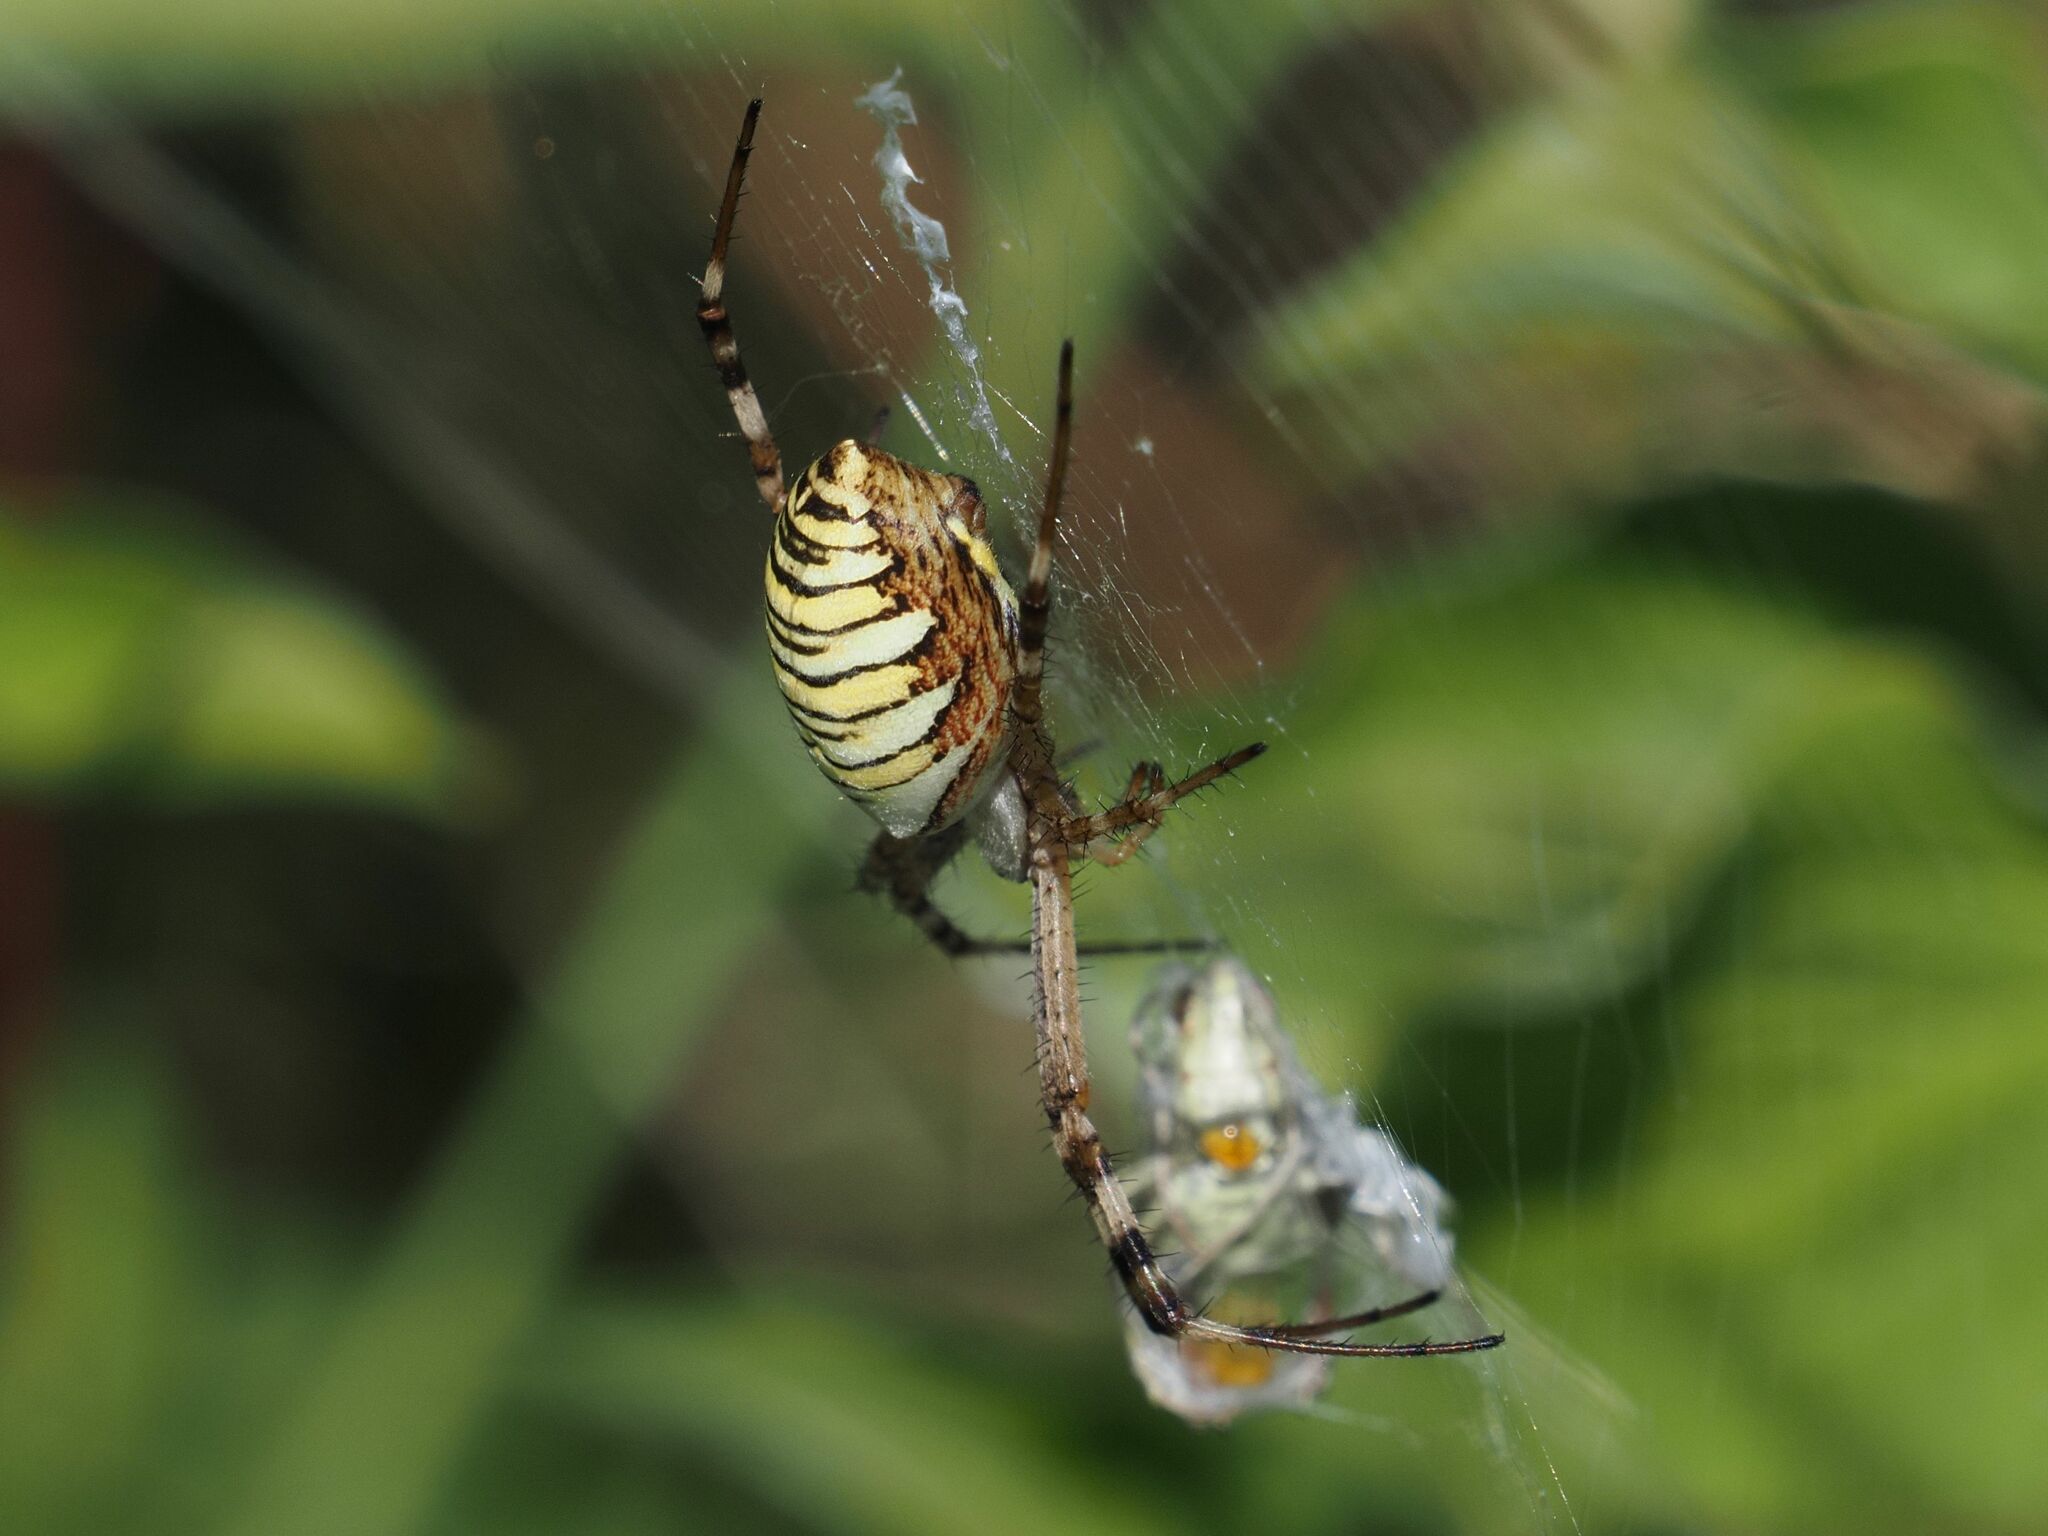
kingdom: Animalia
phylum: Arthropoda
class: Arachnida
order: Araneae
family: Araneidae
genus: Argiope
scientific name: Argiope bruennichi
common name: Wasp spider
